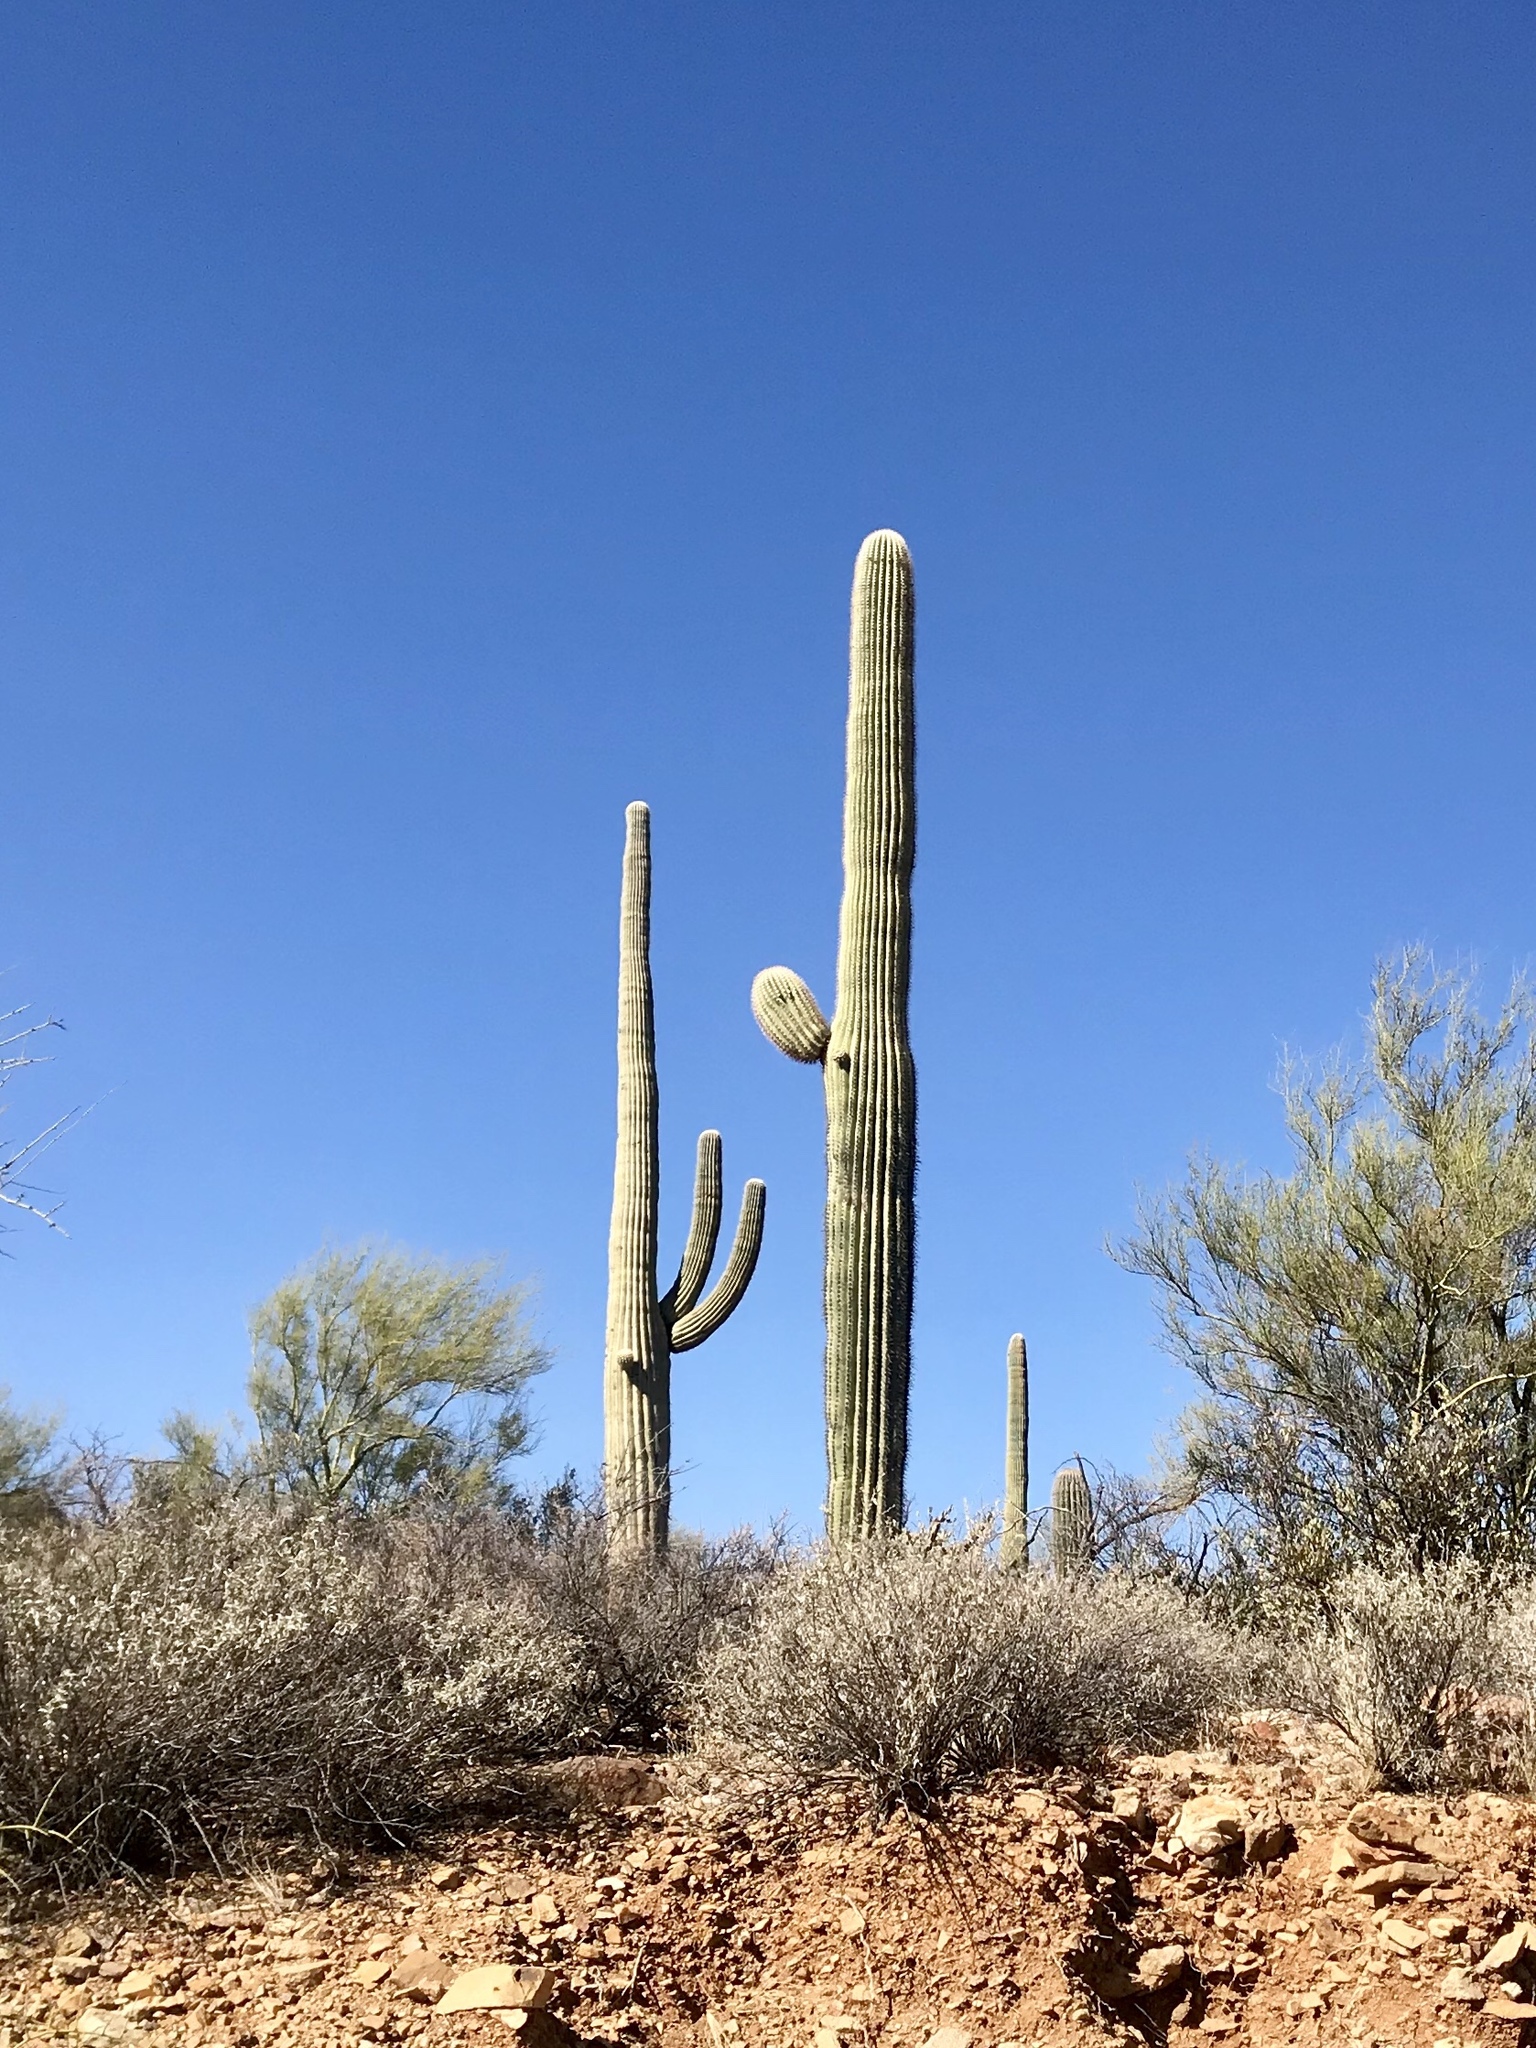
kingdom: Plantae
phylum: Tracheophyta
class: Magnoliopsida
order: Caryophyllales
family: Cactaceae
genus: Carnegiea
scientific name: Carnegiea gigantea
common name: Saguaro
